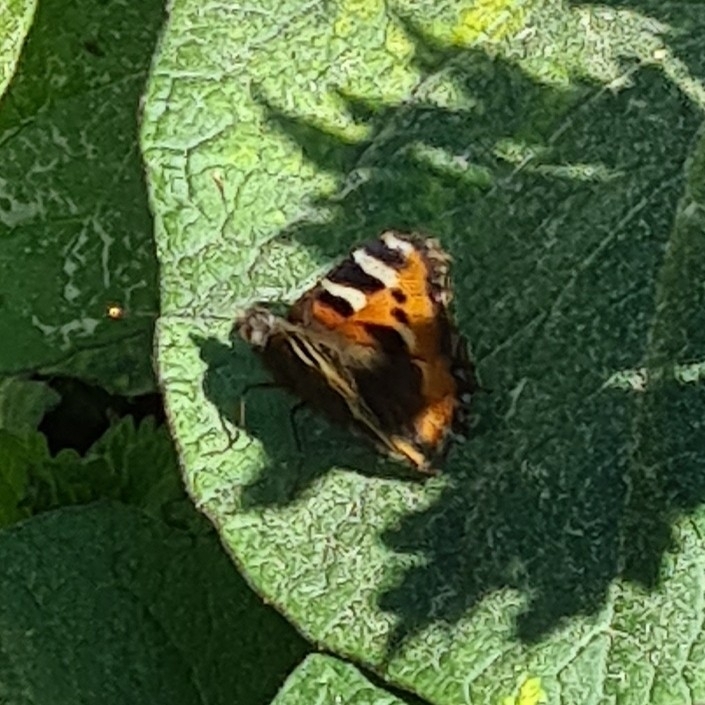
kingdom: Animalia
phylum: Arthropoda
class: Insecta
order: Lepidoptera
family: Nymphalidae
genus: Aglais
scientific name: Aglais urticae
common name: Small tortoiseshell
